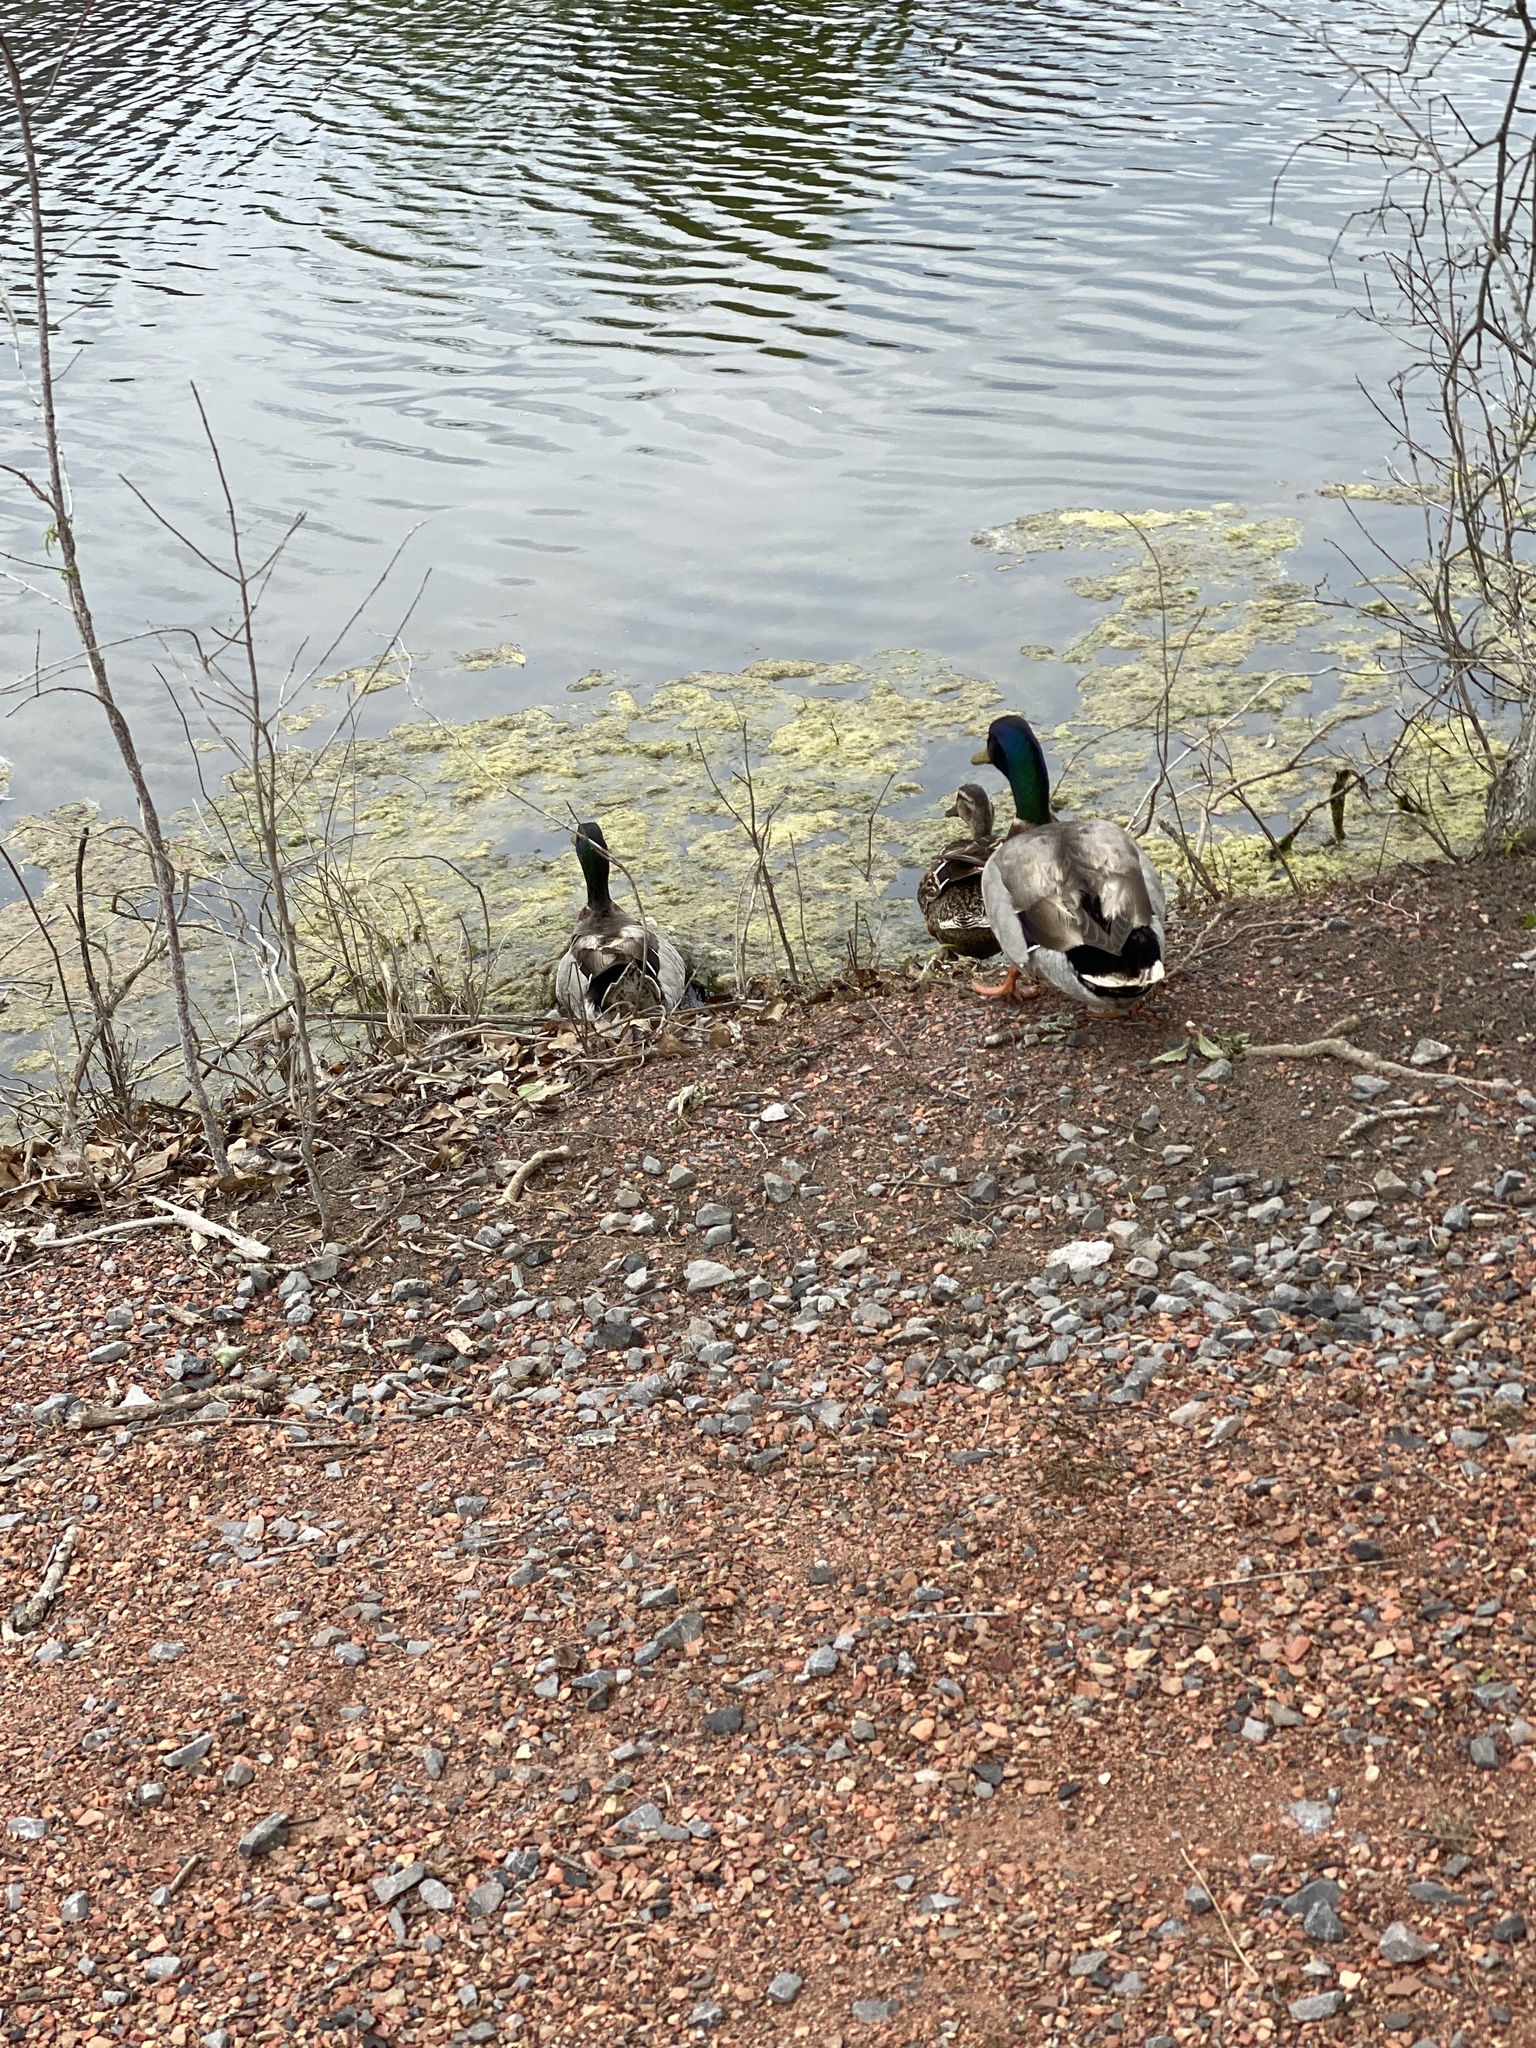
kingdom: Animalia
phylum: Chordata
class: Aves
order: Anseriformes
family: Anatidae
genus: Anas
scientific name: Anas platyrhynchos
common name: Mallard
